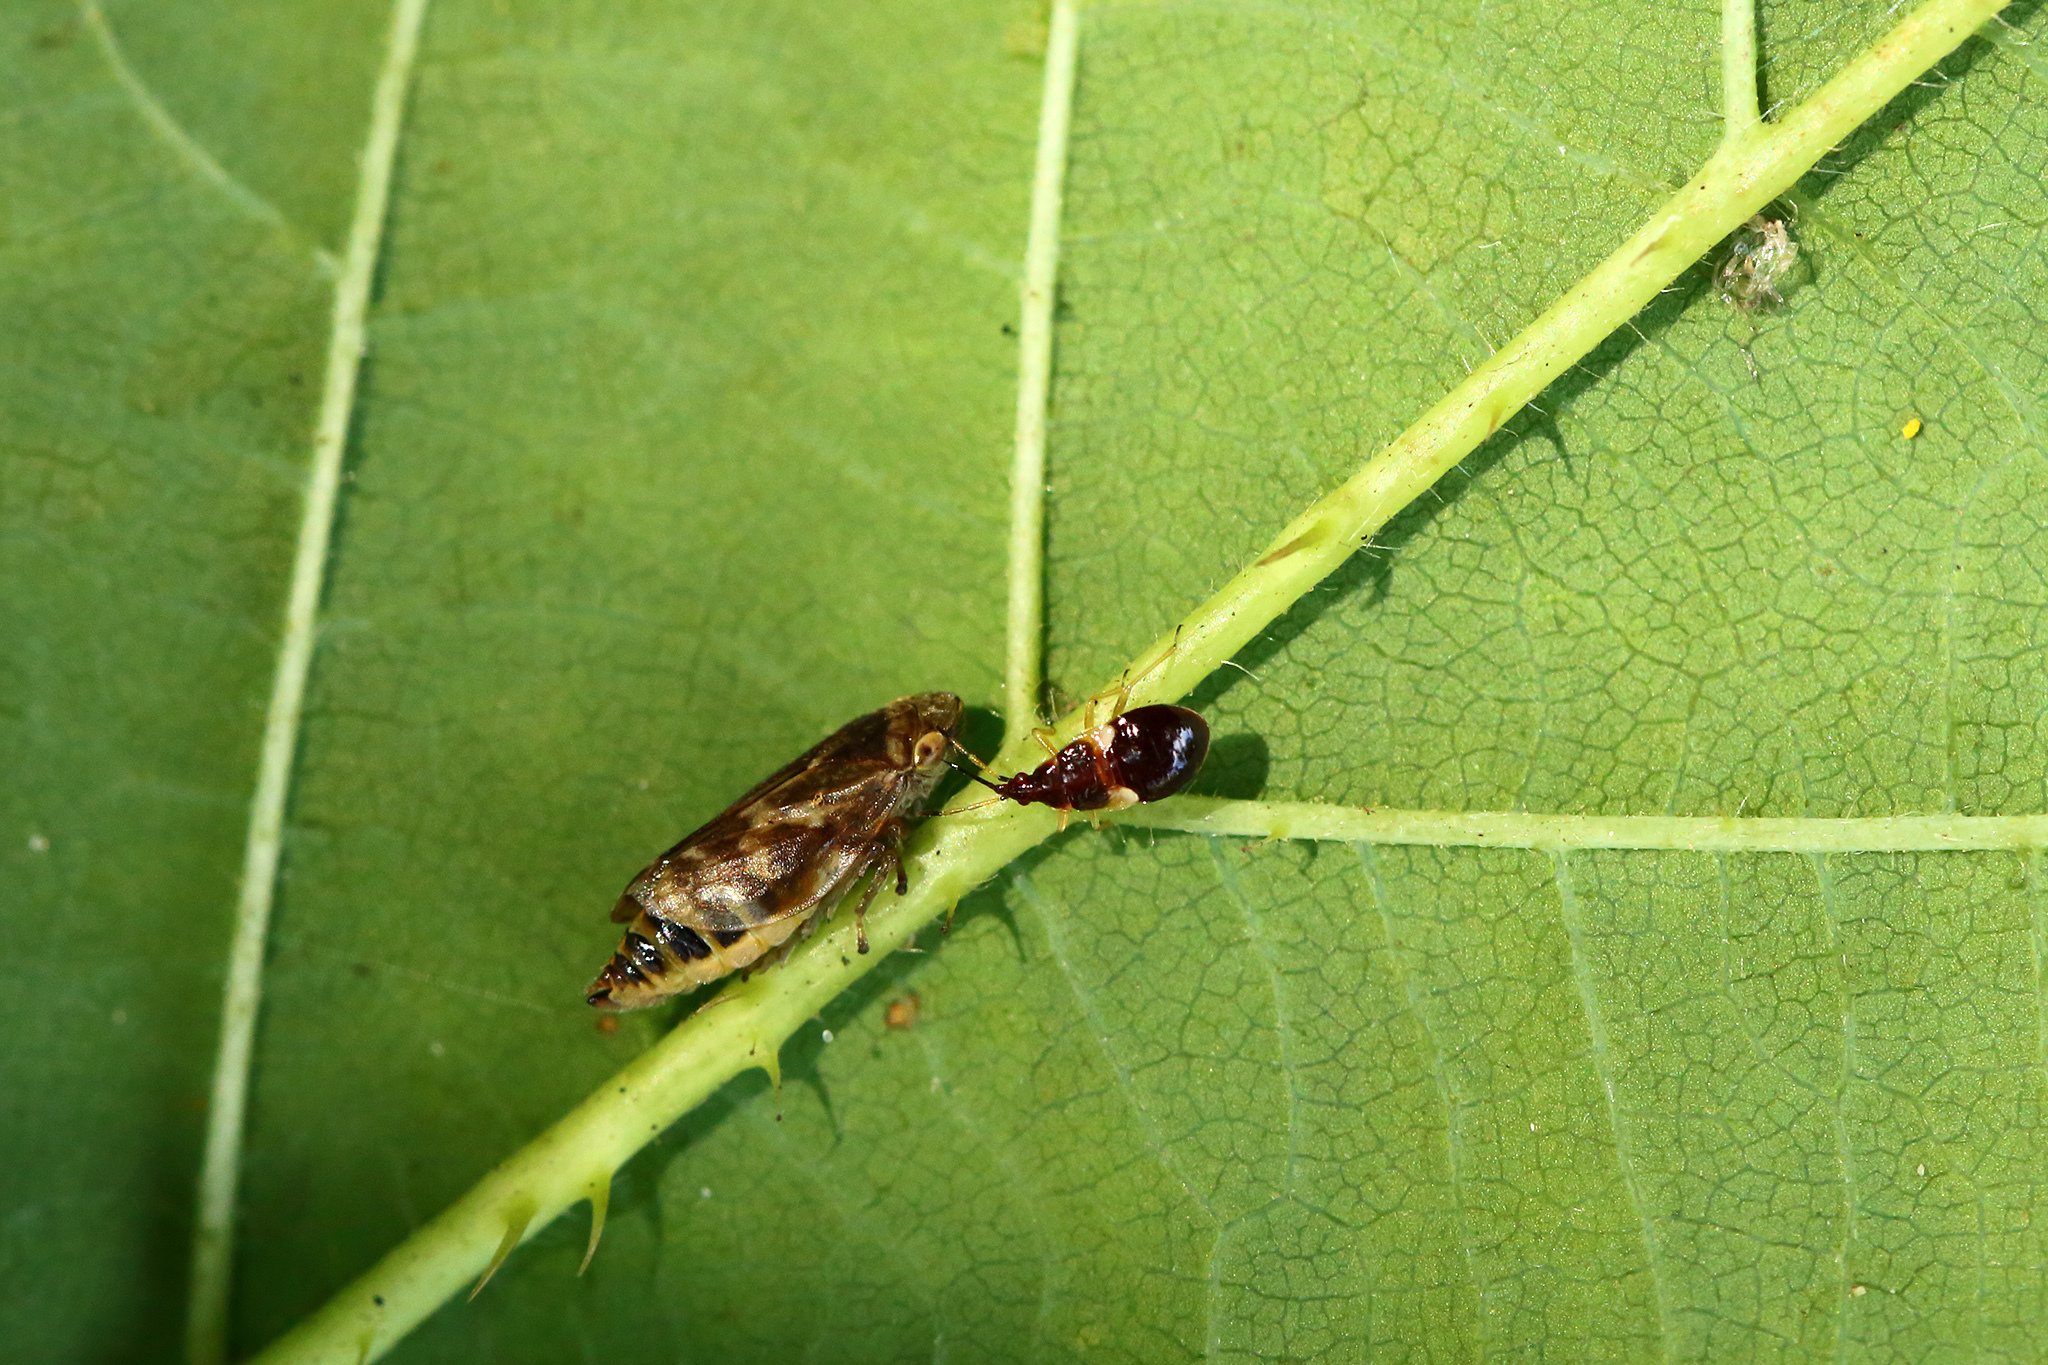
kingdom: Animalia
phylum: Arthropoda
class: Insecta
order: Hemiptera
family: Aphrophoridae
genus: Philaenus
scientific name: Philaenus spumarius
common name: Meadow spittlebug
